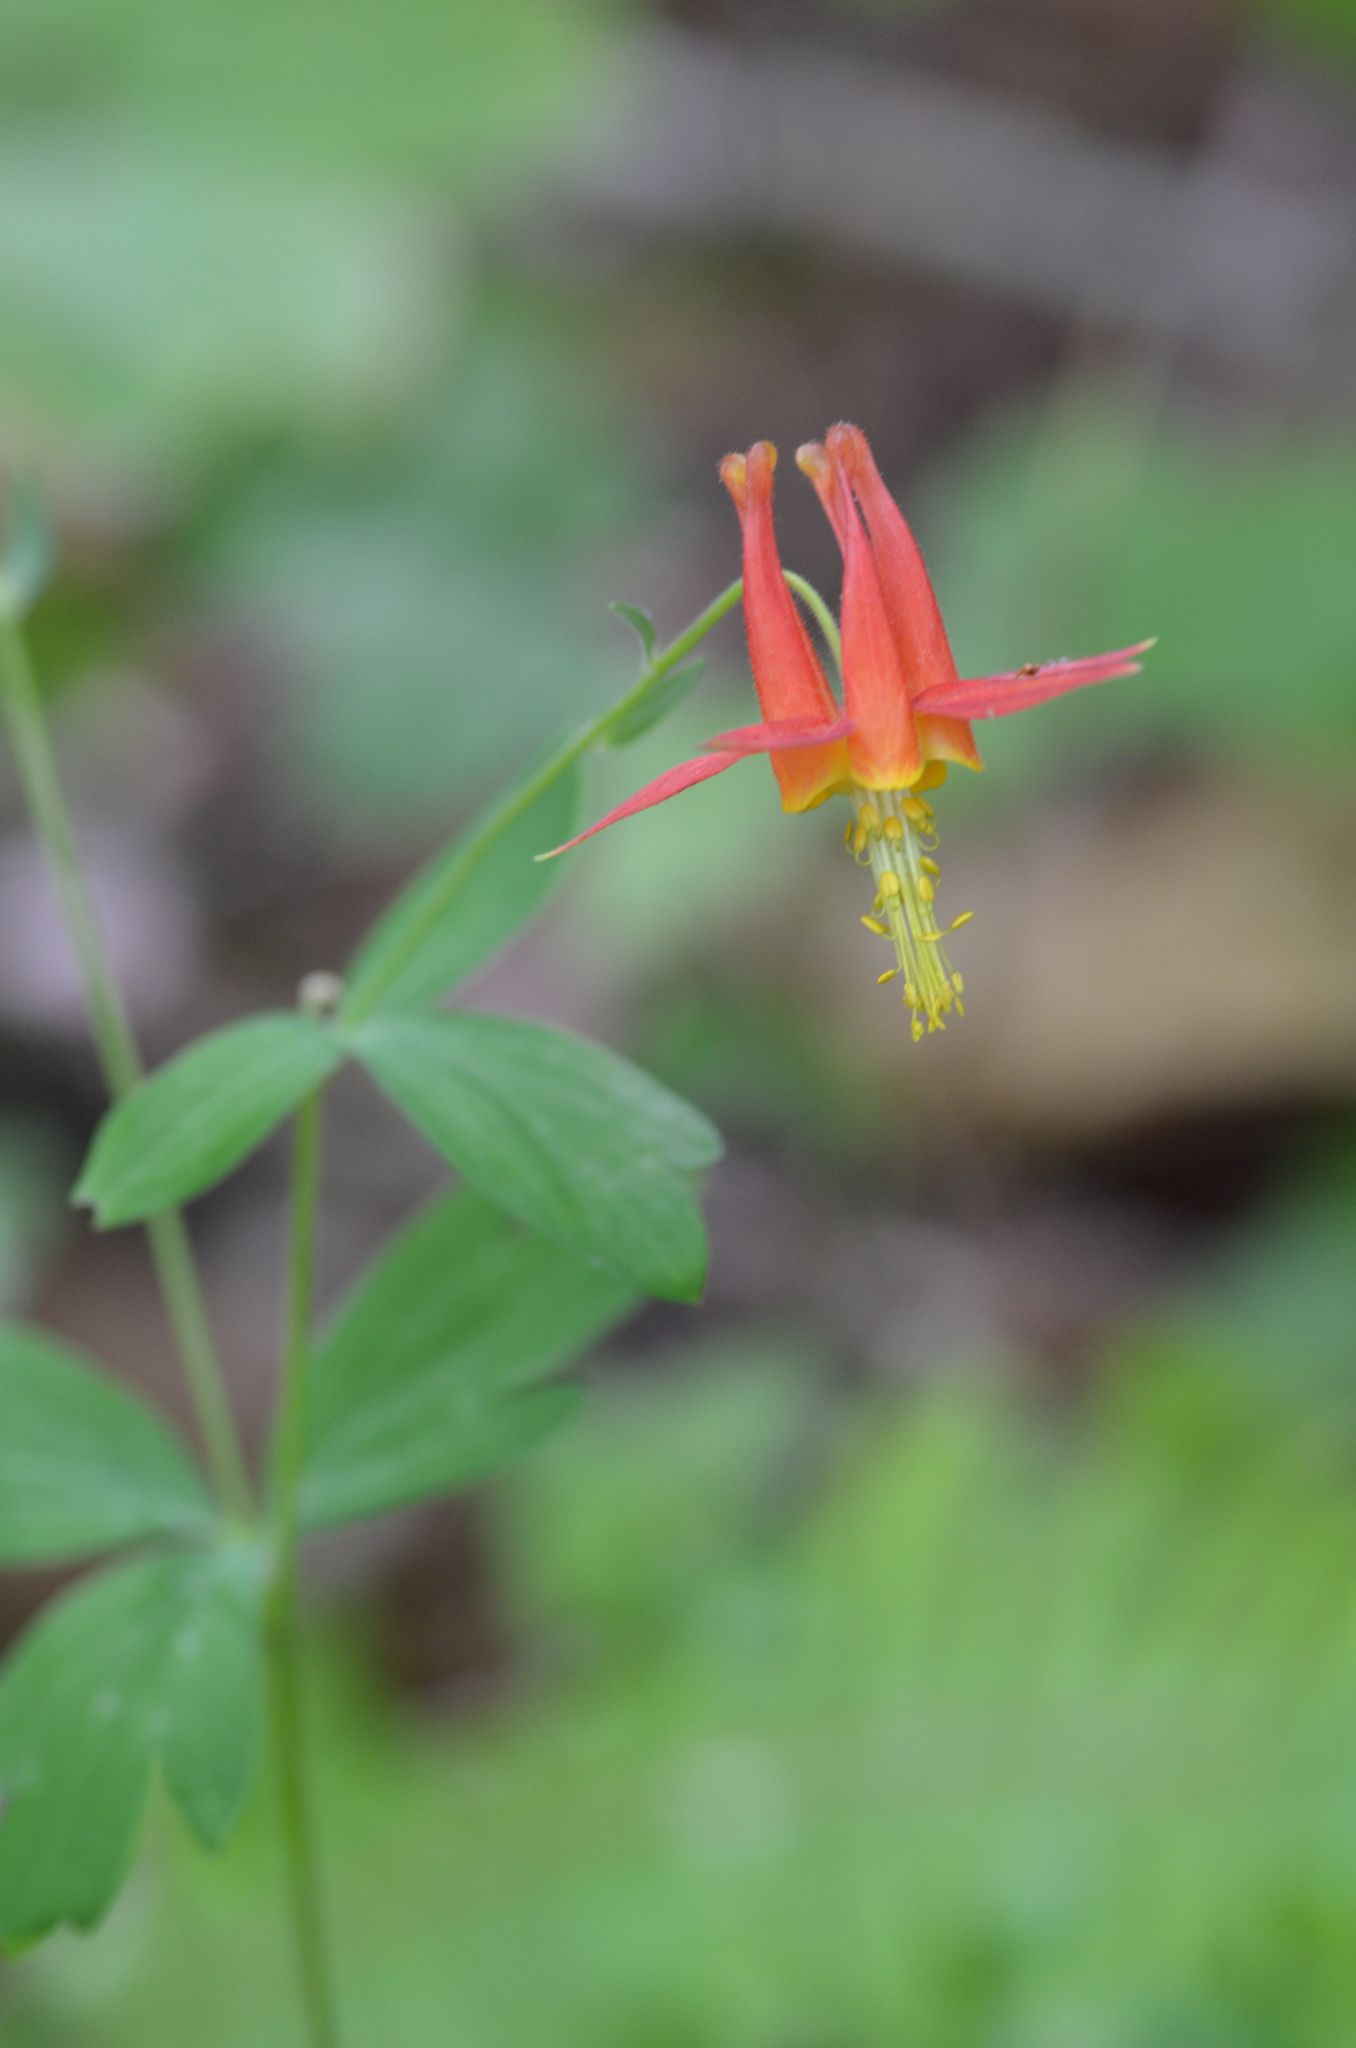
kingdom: Plantae
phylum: Tracheophyta
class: Magnoliopsida
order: Ranunculales
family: Ranunculaceae
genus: Aquilegia
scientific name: Aquilegia formosa
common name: Sitka columbine
